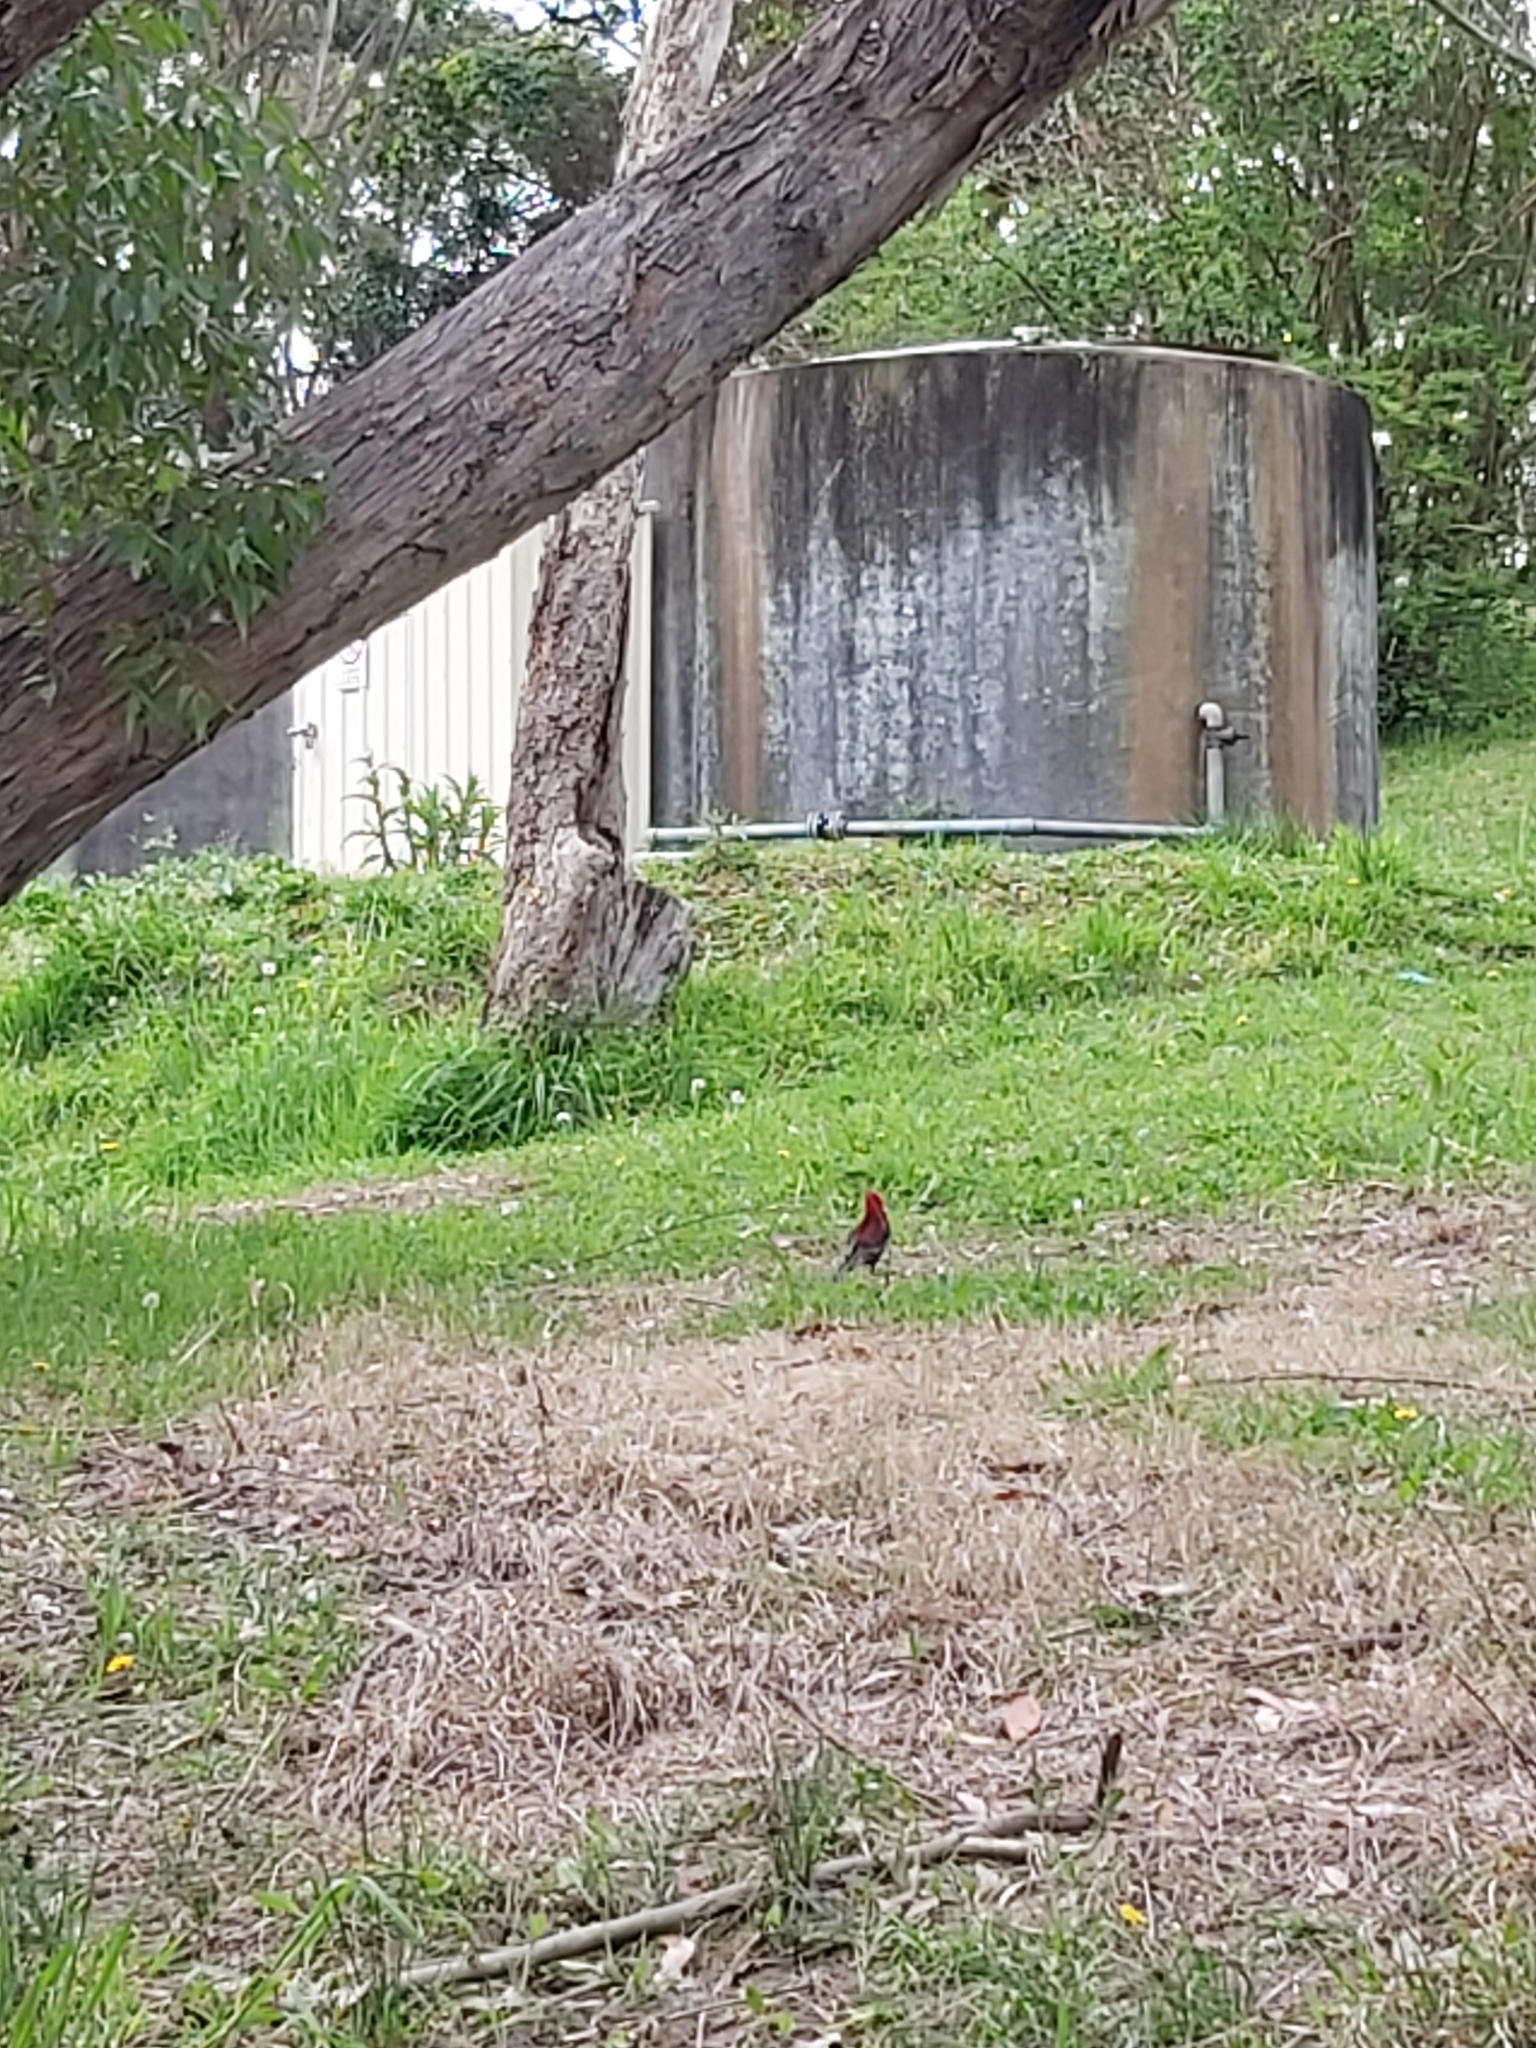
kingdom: Animalia
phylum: Chordata
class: Aves
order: Psittaciformes
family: Psittacidae
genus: Platycercus
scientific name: Platycercus elegans
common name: Crimson rosella
